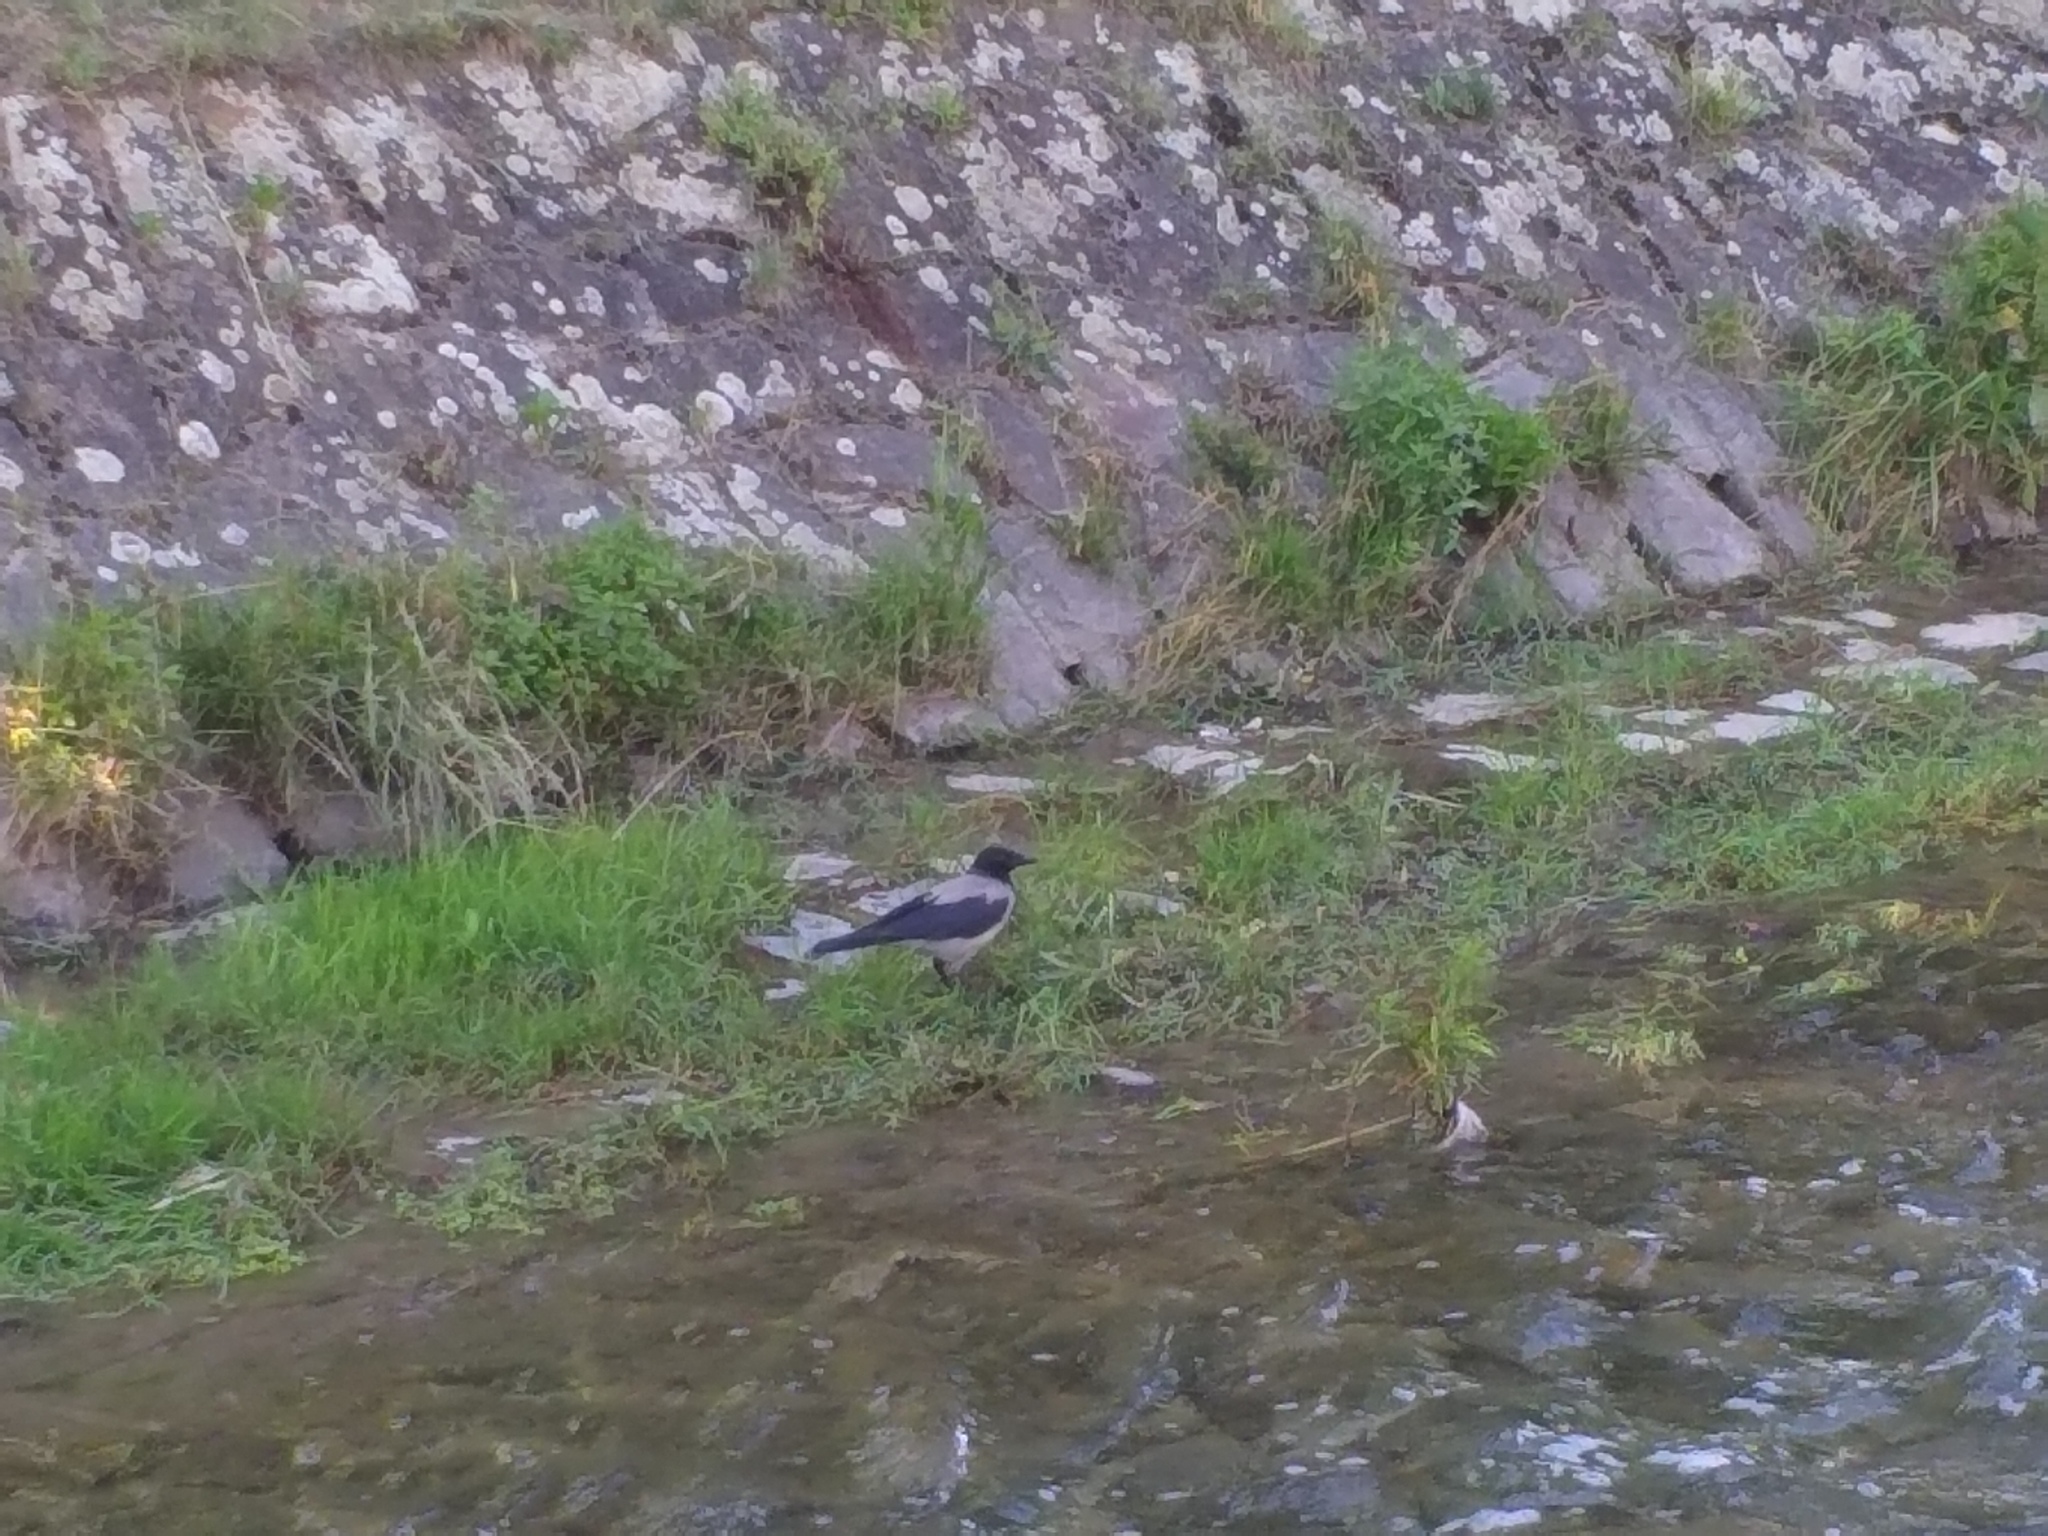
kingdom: Animalia
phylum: Chordata
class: Aves
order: Passeriformes
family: Corvidae
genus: Corvus
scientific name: Corvus cornix
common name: Hooded crow
